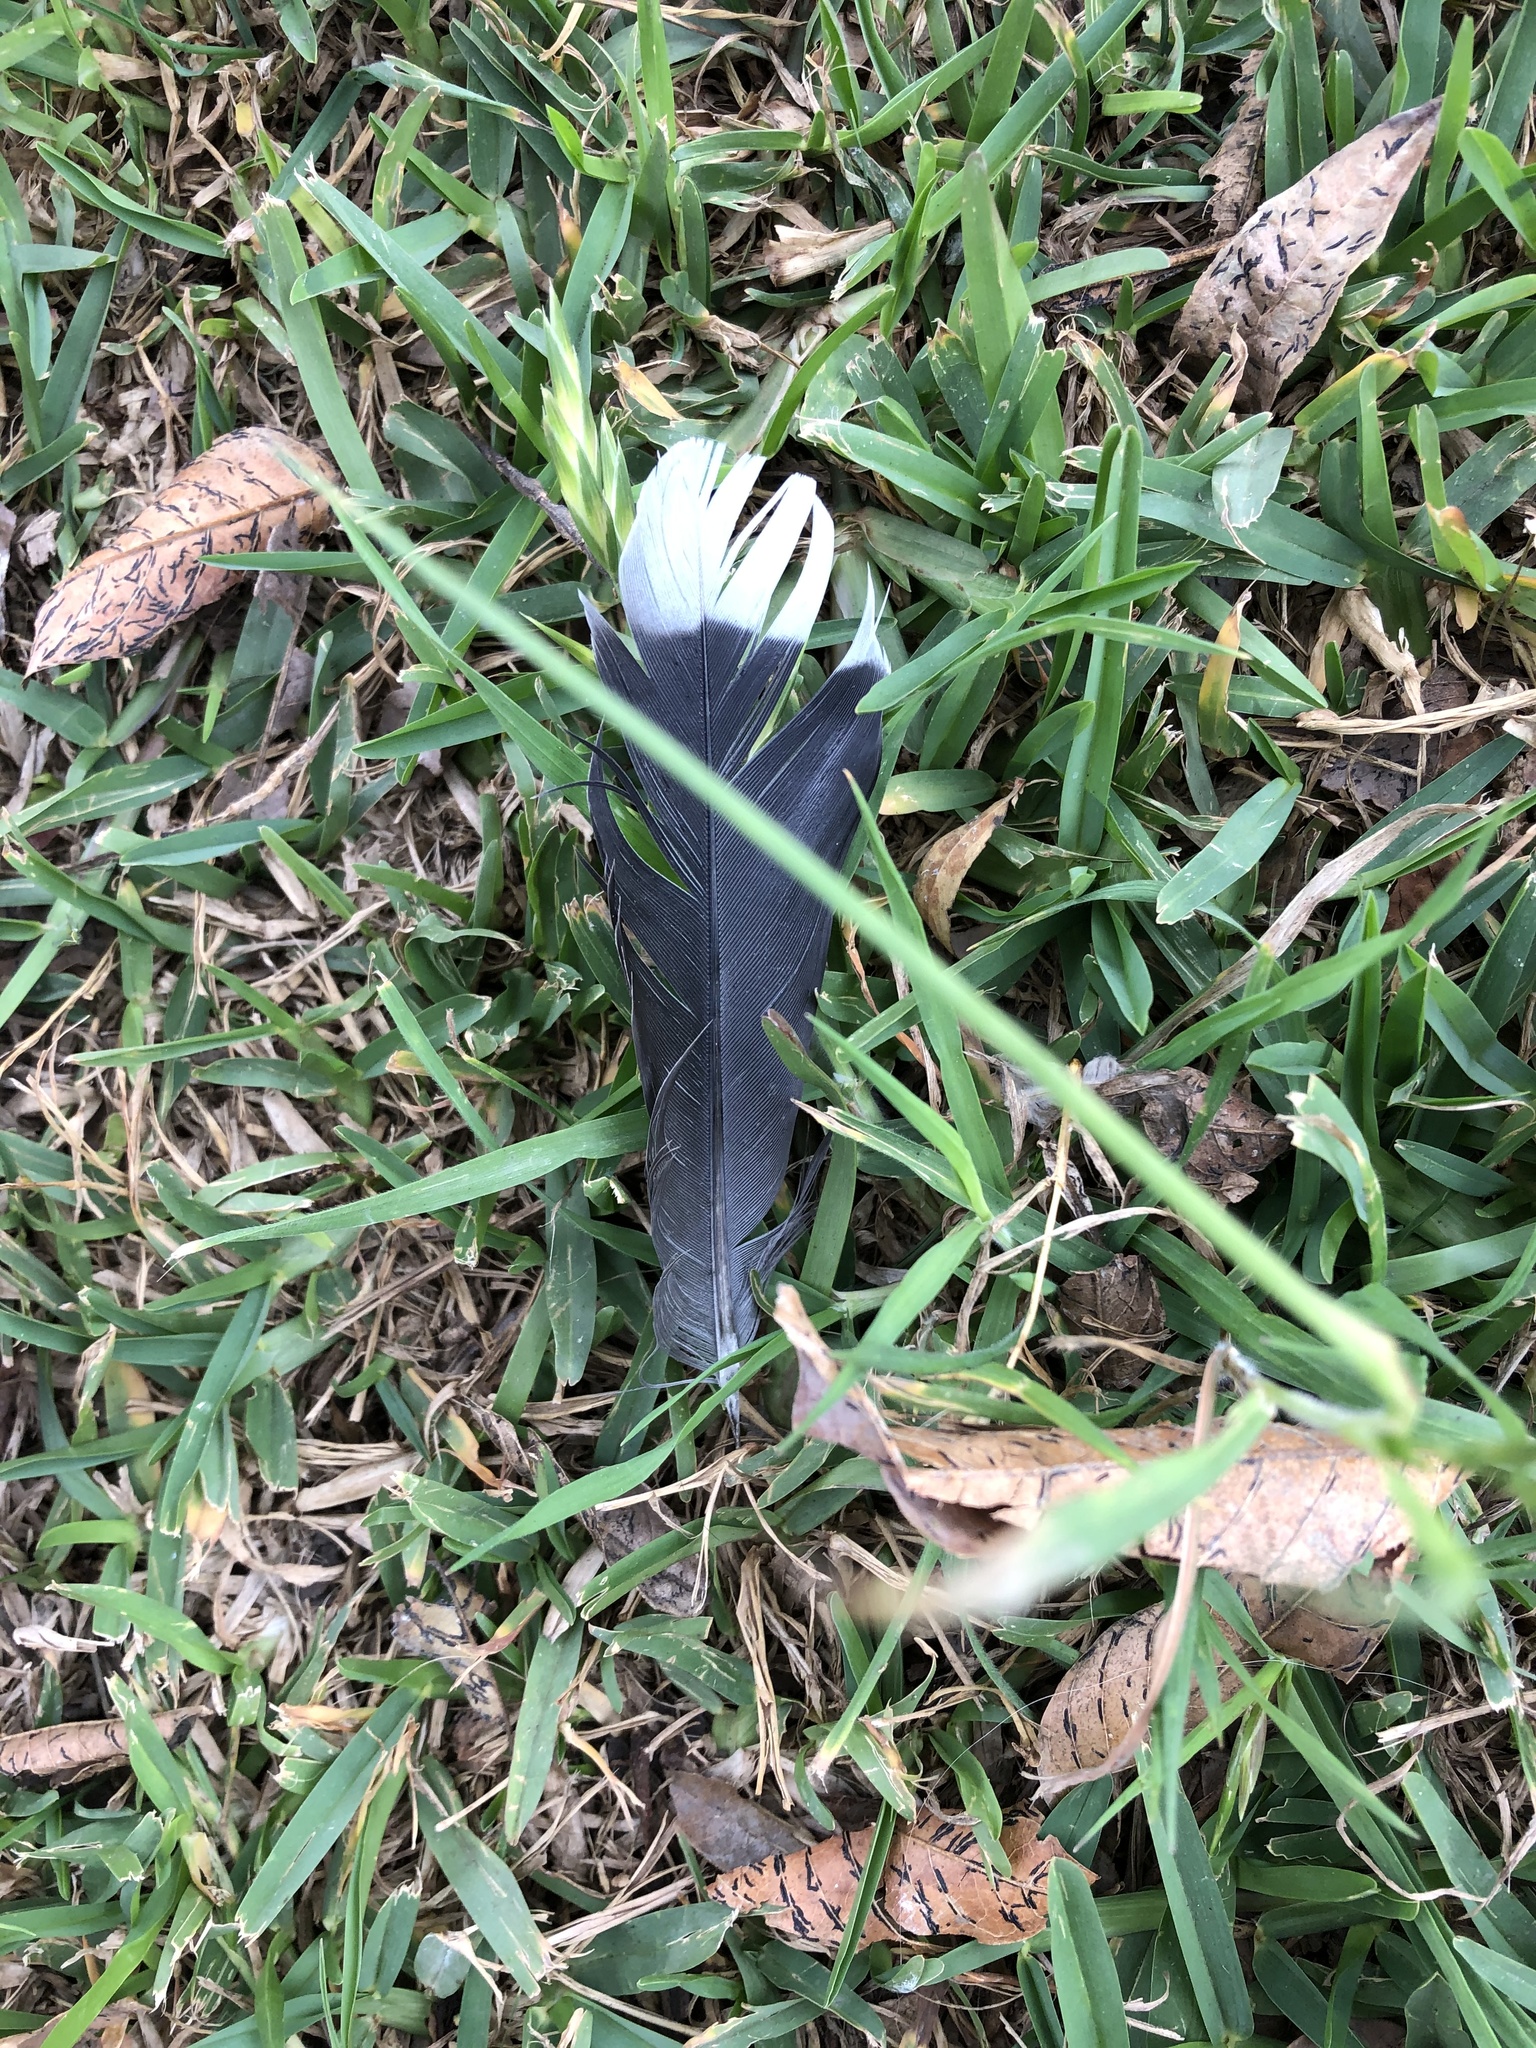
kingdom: Animalia
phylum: Chordata
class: Aves
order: Columbiformes
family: Columbidae
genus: Zenaida
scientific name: Zenaida meloda
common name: West peruvian dove
